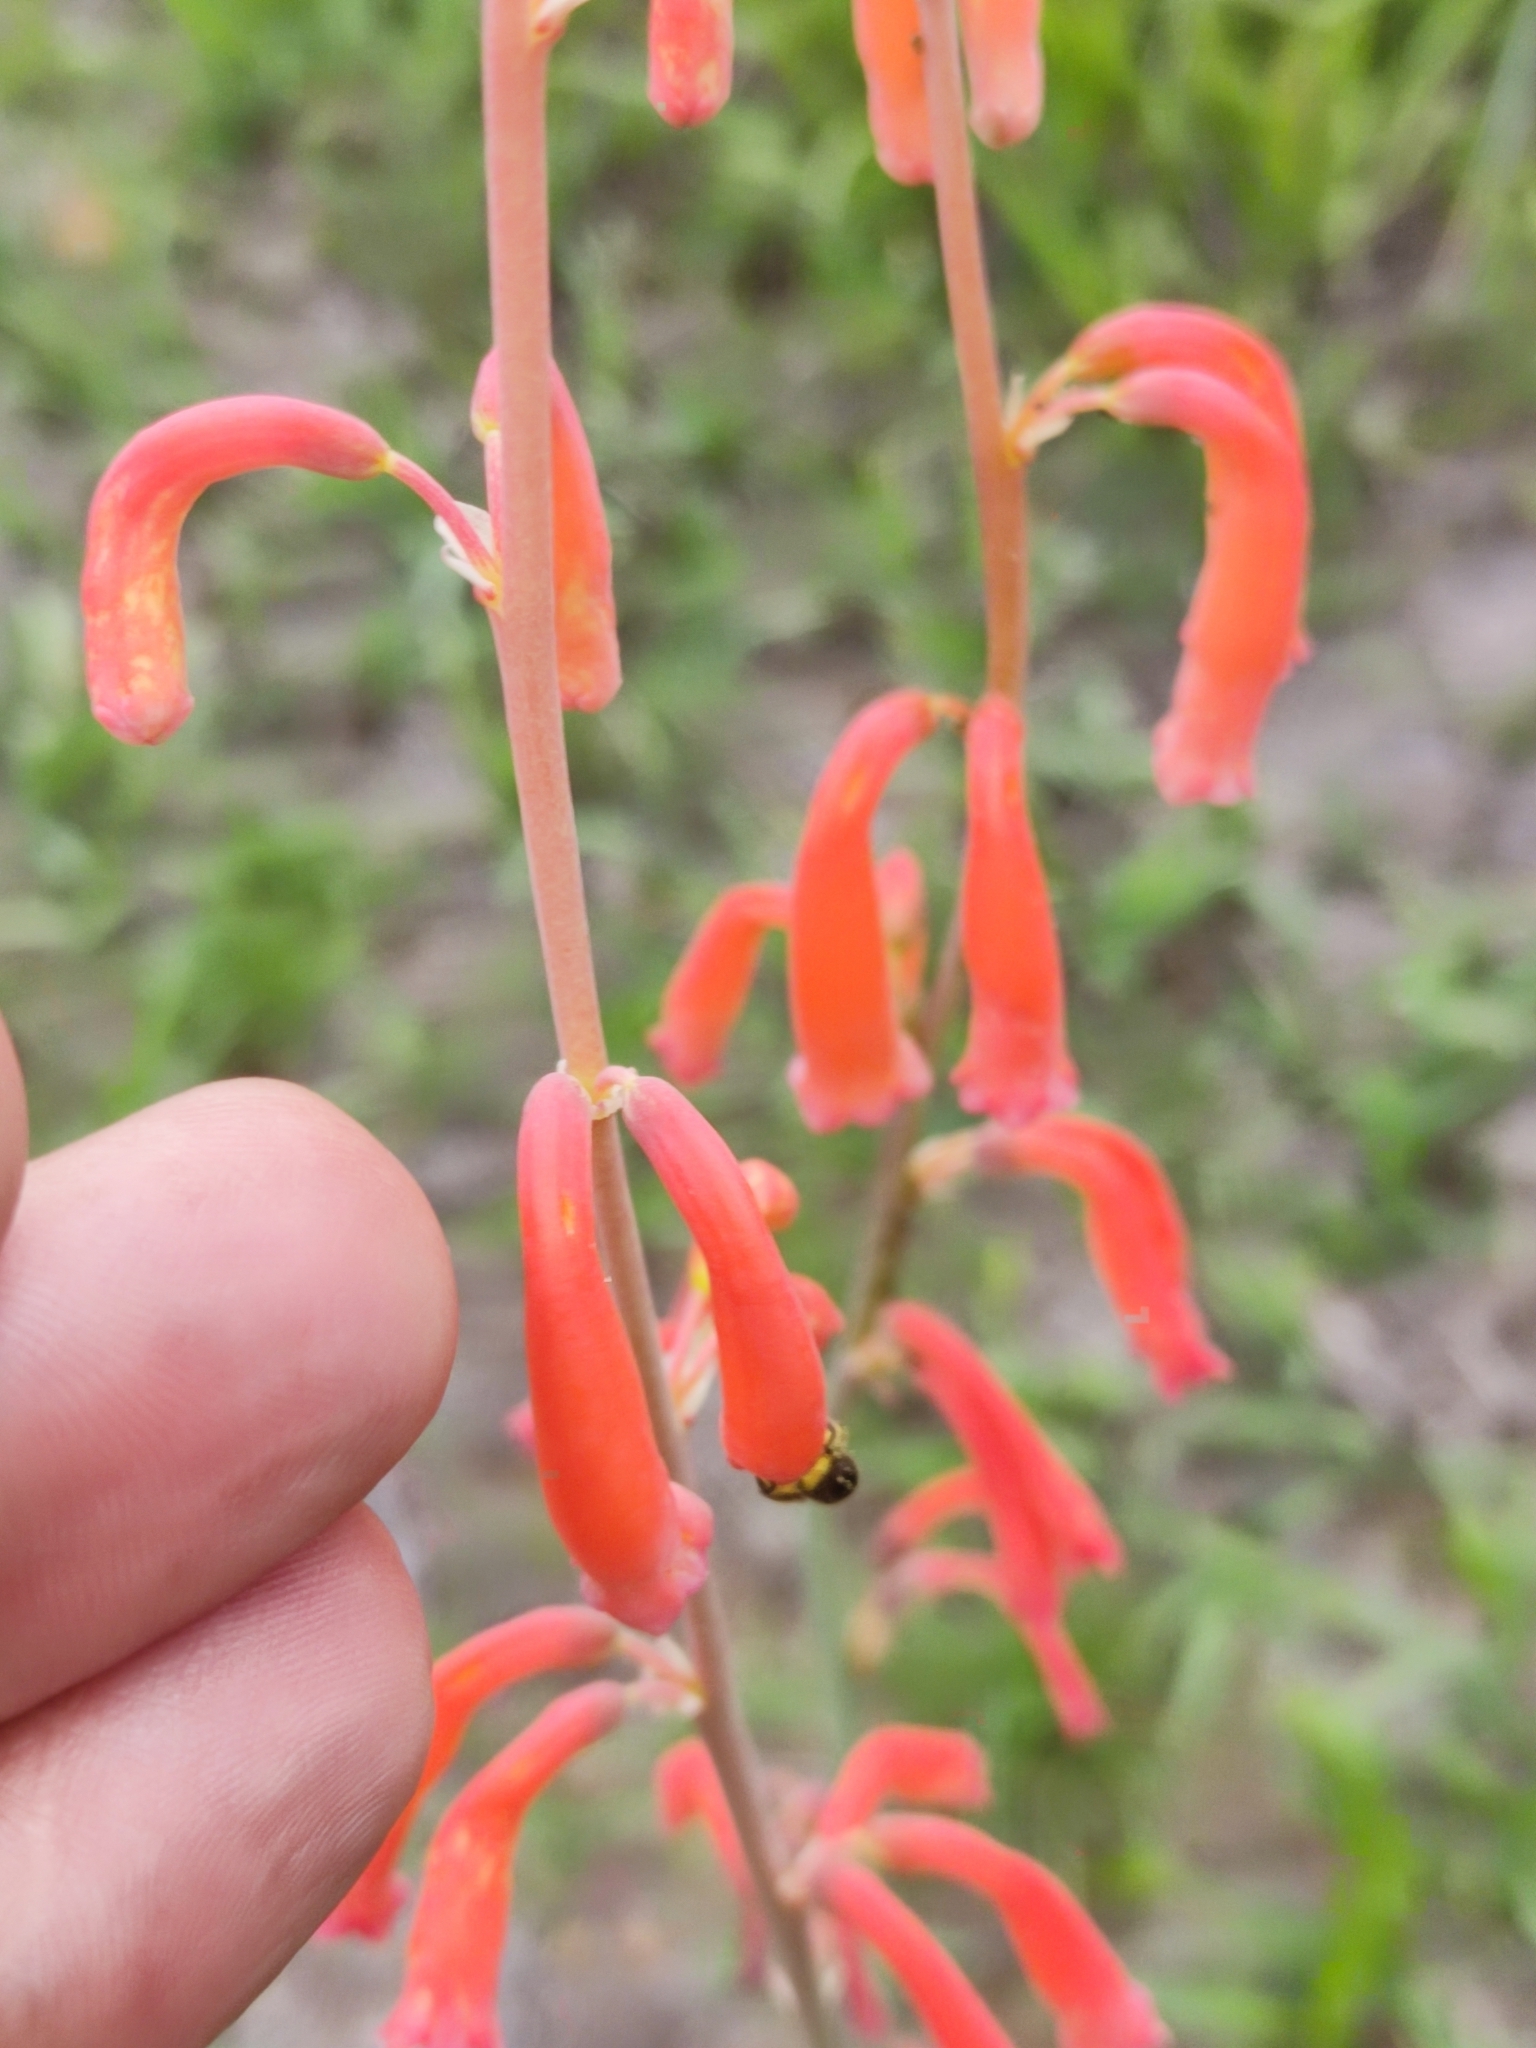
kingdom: Plantae
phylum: Tracheophyta
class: Liliopsida
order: Asparagales
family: Asparagaceae
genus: Agave
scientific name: Agave coetocapnia
